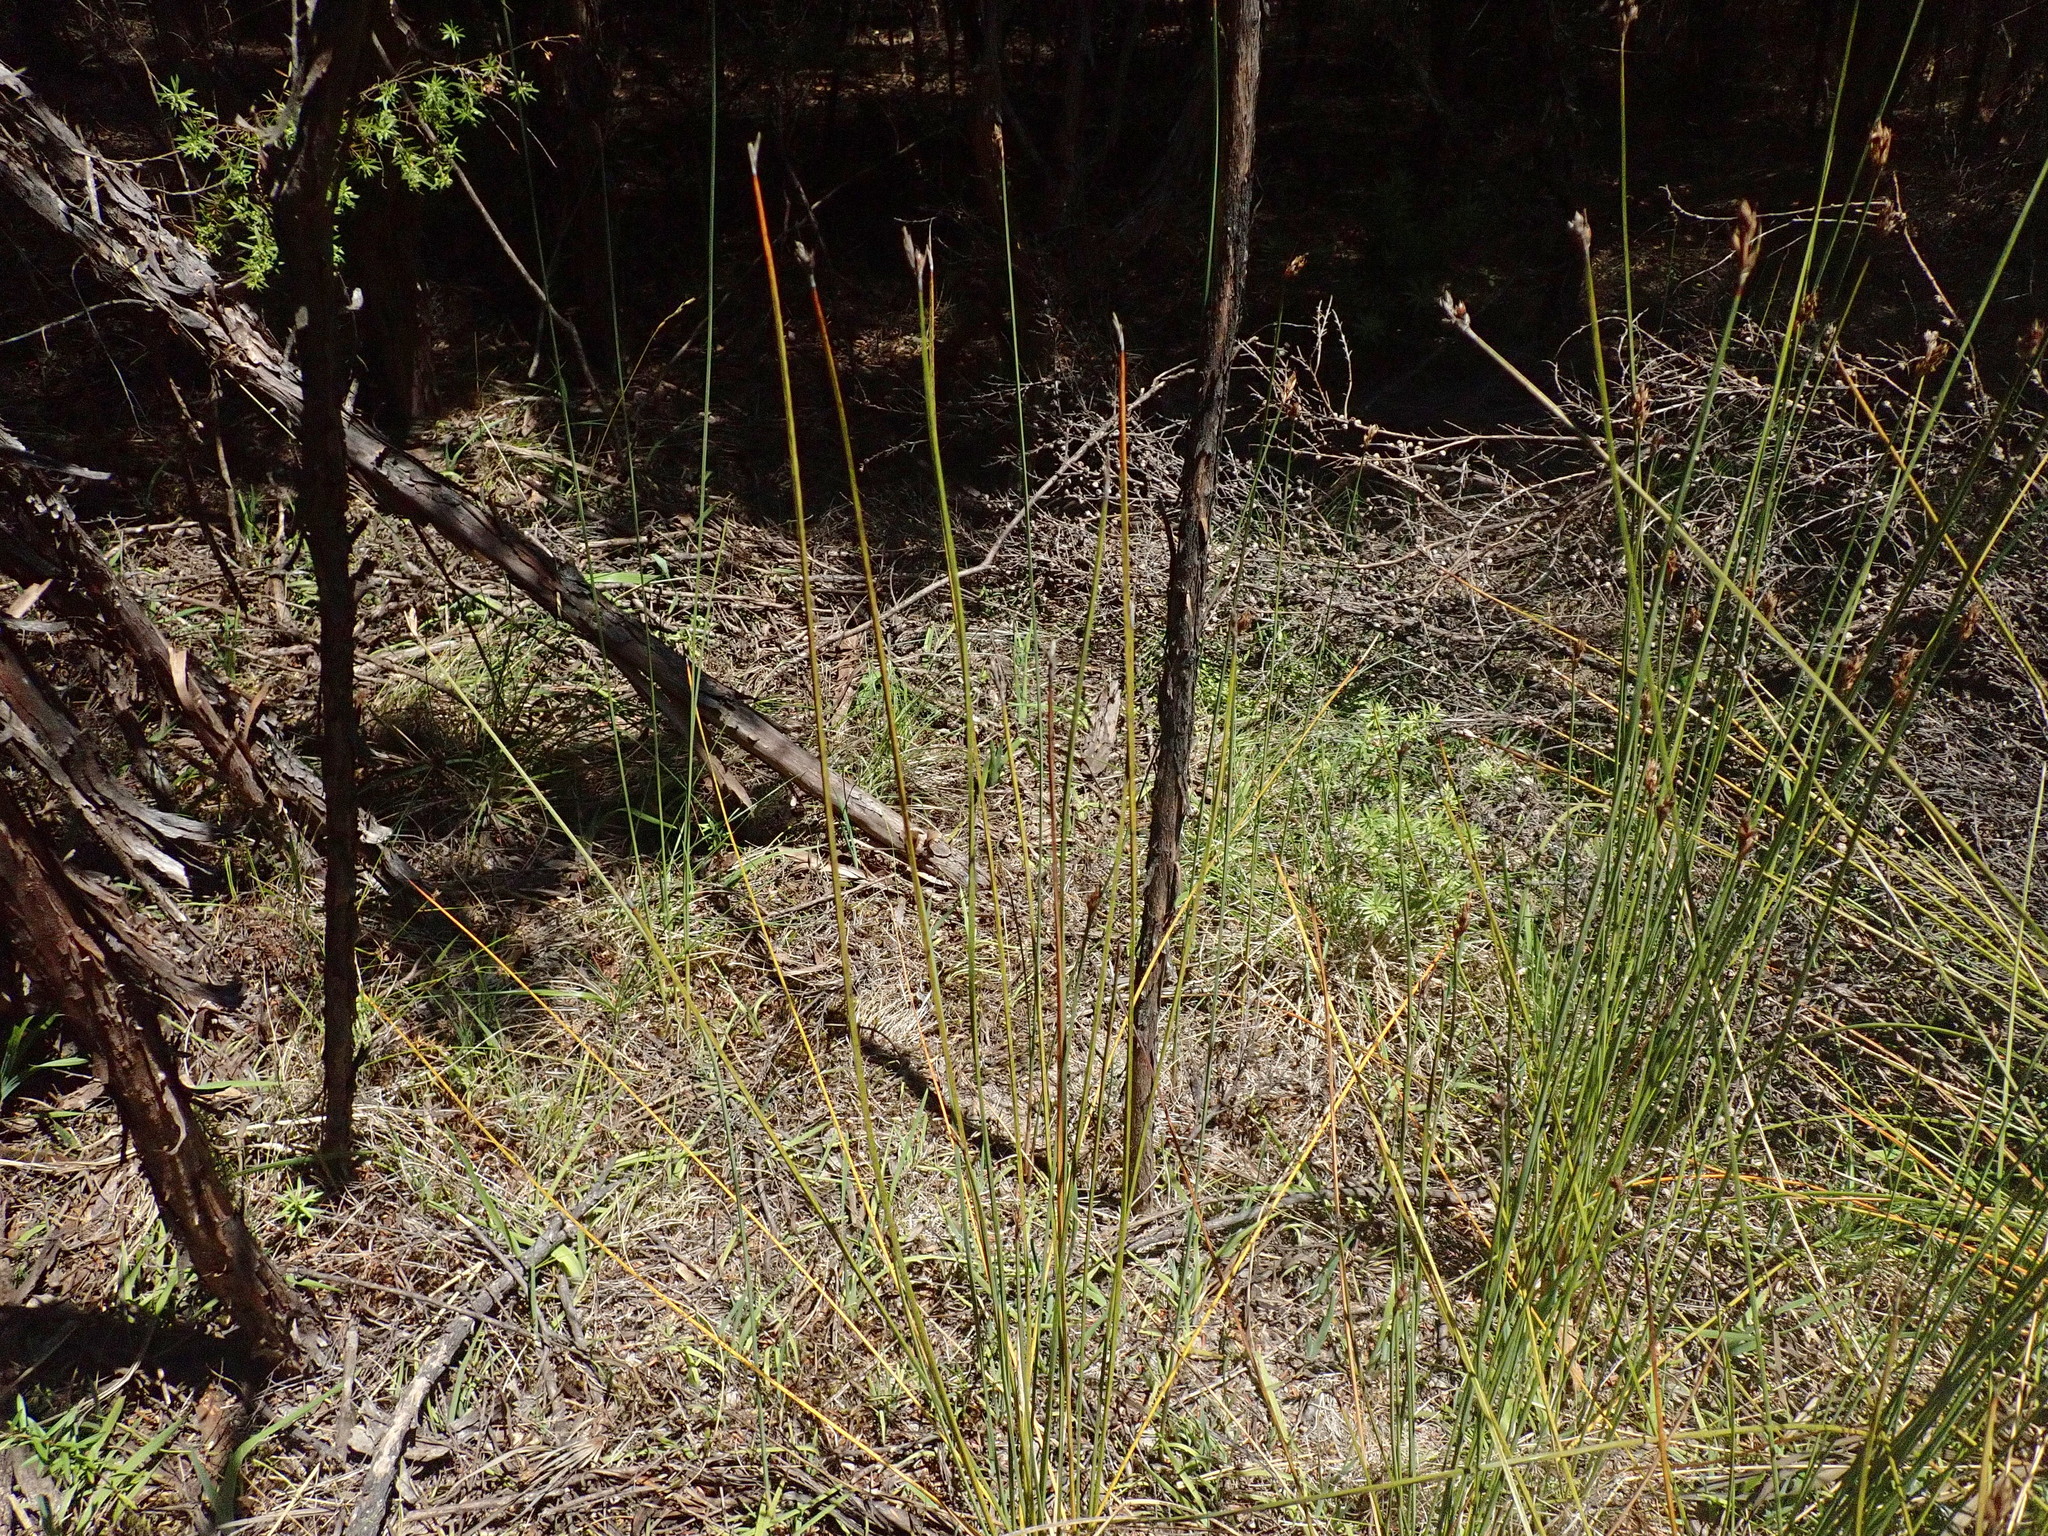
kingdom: Plantae
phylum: Tracheophyta
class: Magnoliopsida
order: Fabales
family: Fabaceae
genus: Ulex
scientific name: Ulex europaeus
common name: Common gorse
